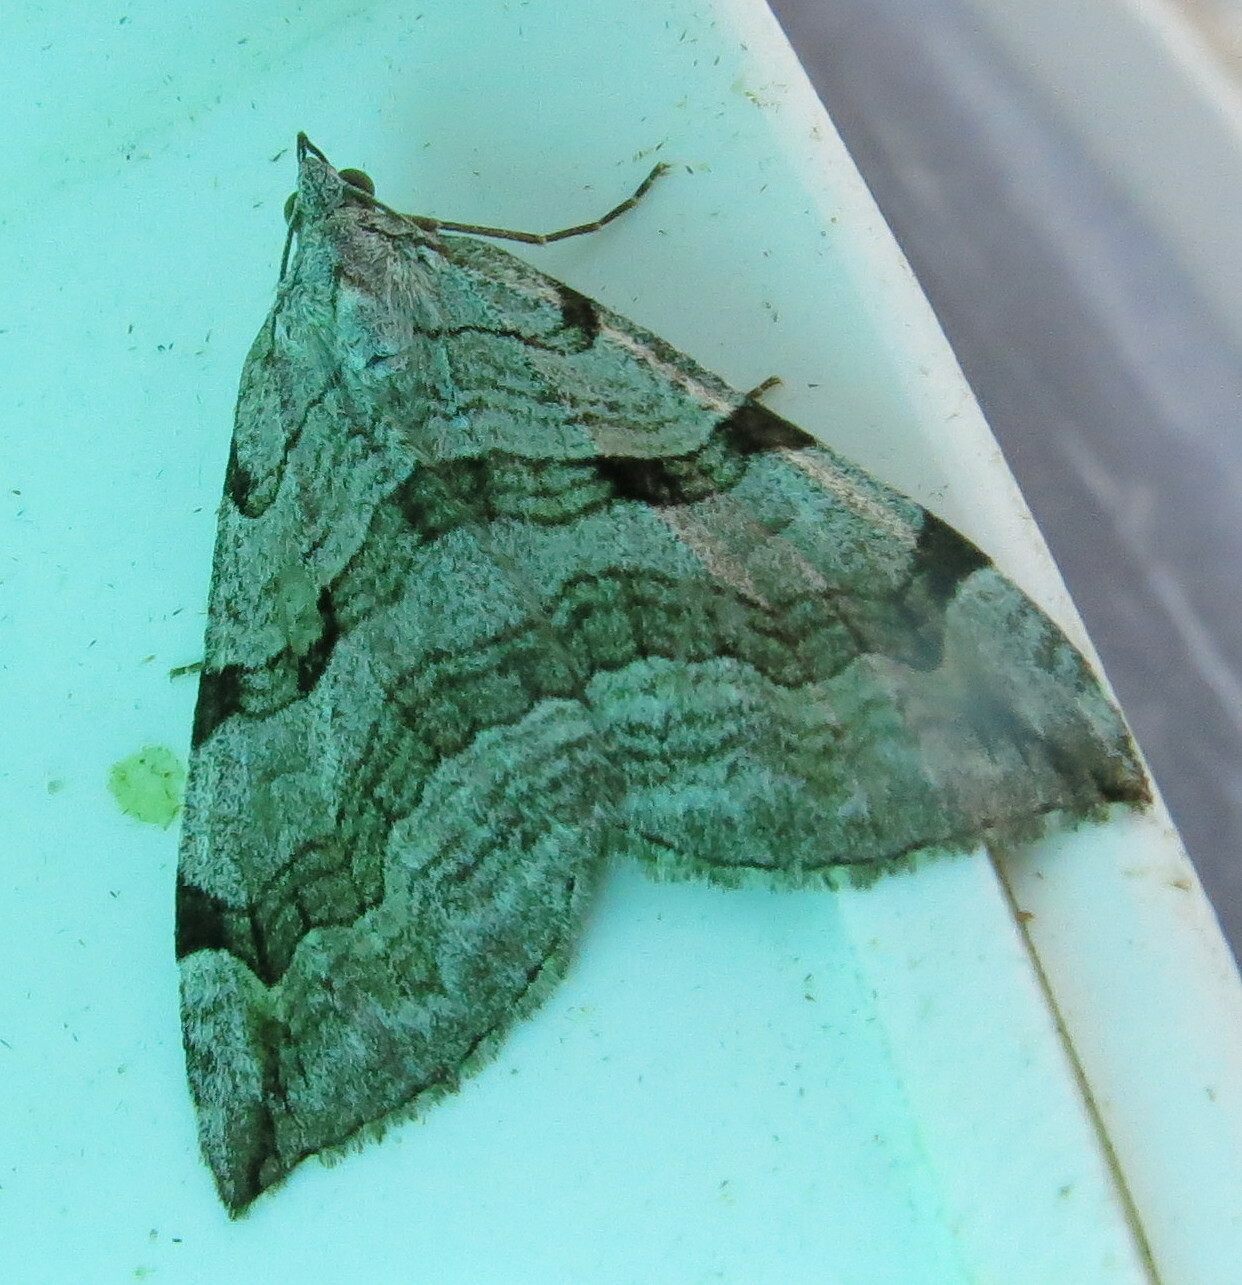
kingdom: Animalia
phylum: Arthropoda
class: Insecta
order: Lepidoptera
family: Geometridae
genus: Aplocera
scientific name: Aplocera plagiata
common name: Treble-bar
